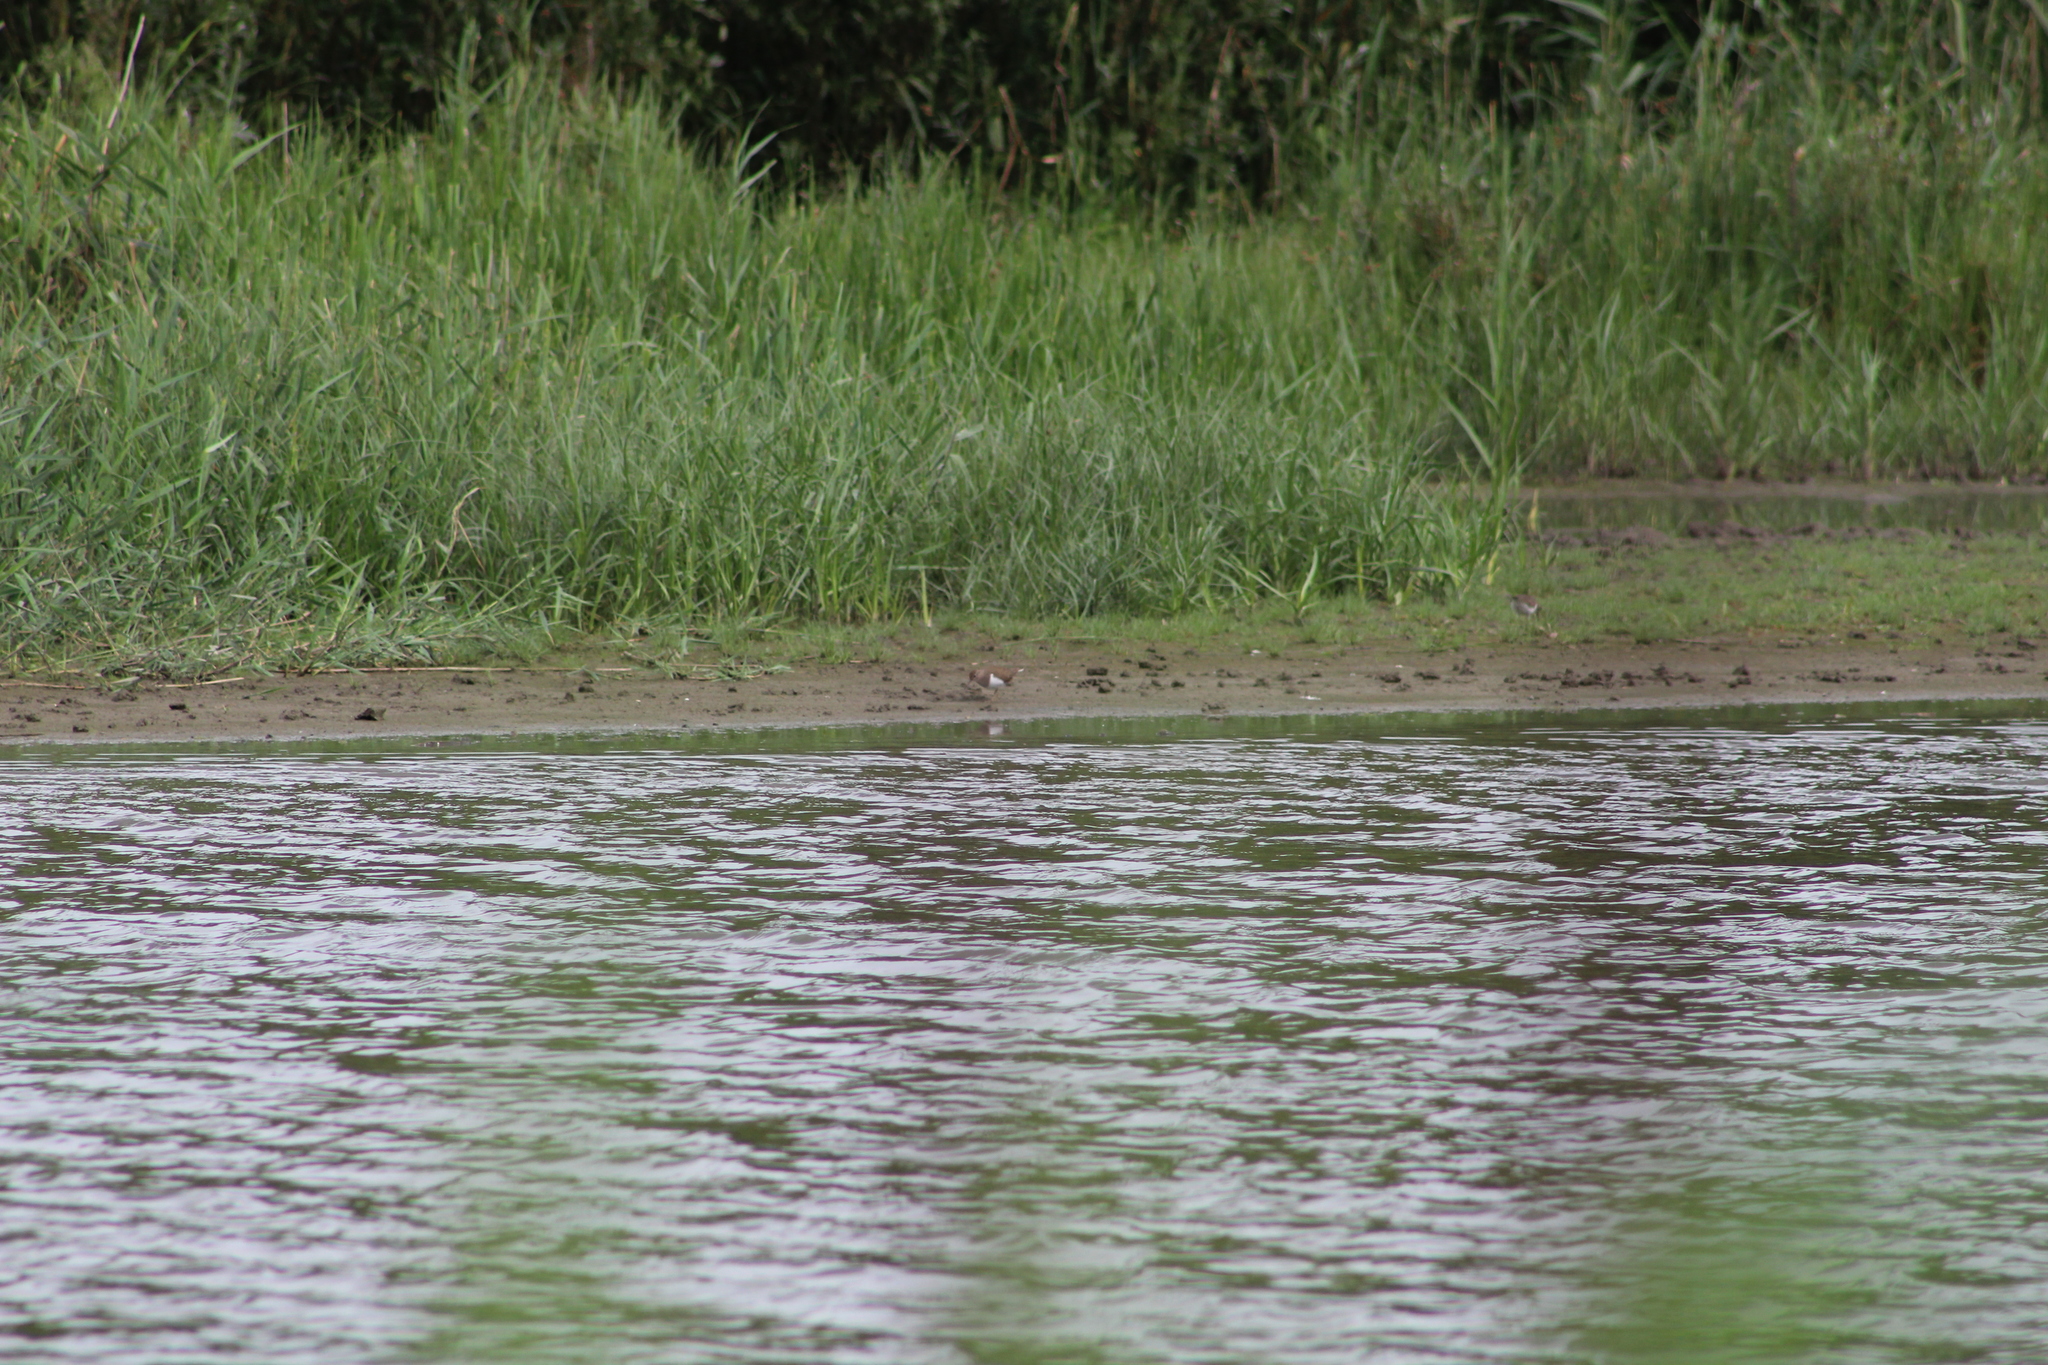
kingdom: Animalia
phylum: Chordata
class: Aves
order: Charadriiformes
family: Scolopacidae
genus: Actitis
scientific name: Actitis hypoleucos
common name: Common sandpiper
